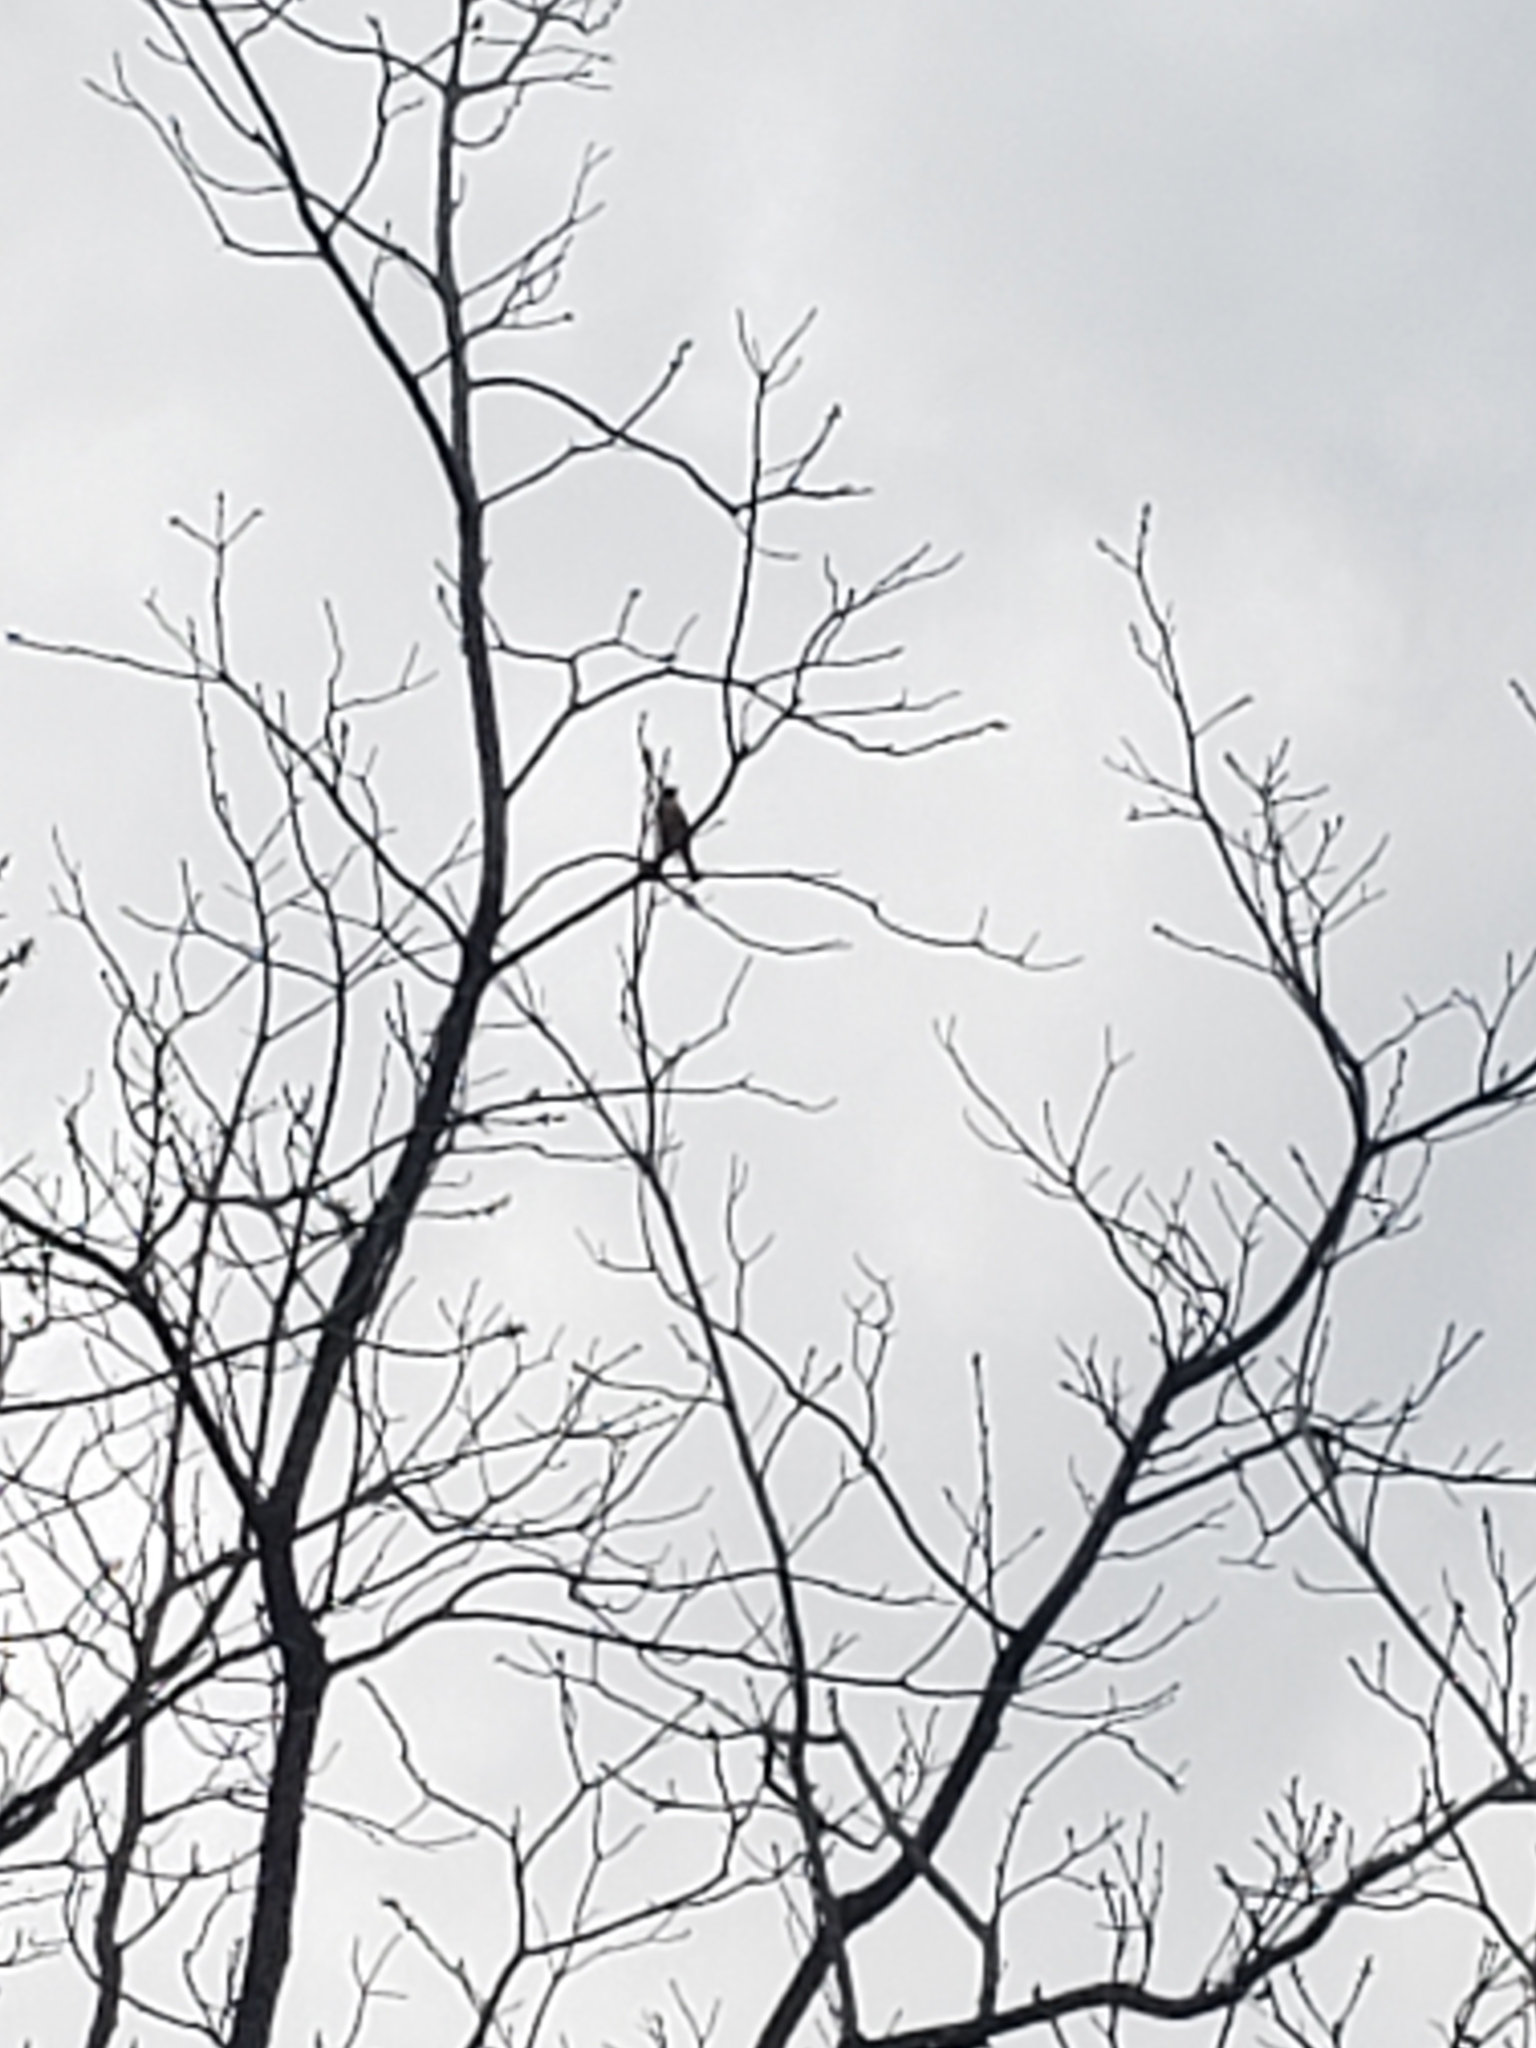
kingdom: Animalia
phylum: Chordata
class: Aves
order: Passeriformes
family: Icteridae
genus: Icterus
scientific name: Icterus galbula
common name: Baltimore oriole
